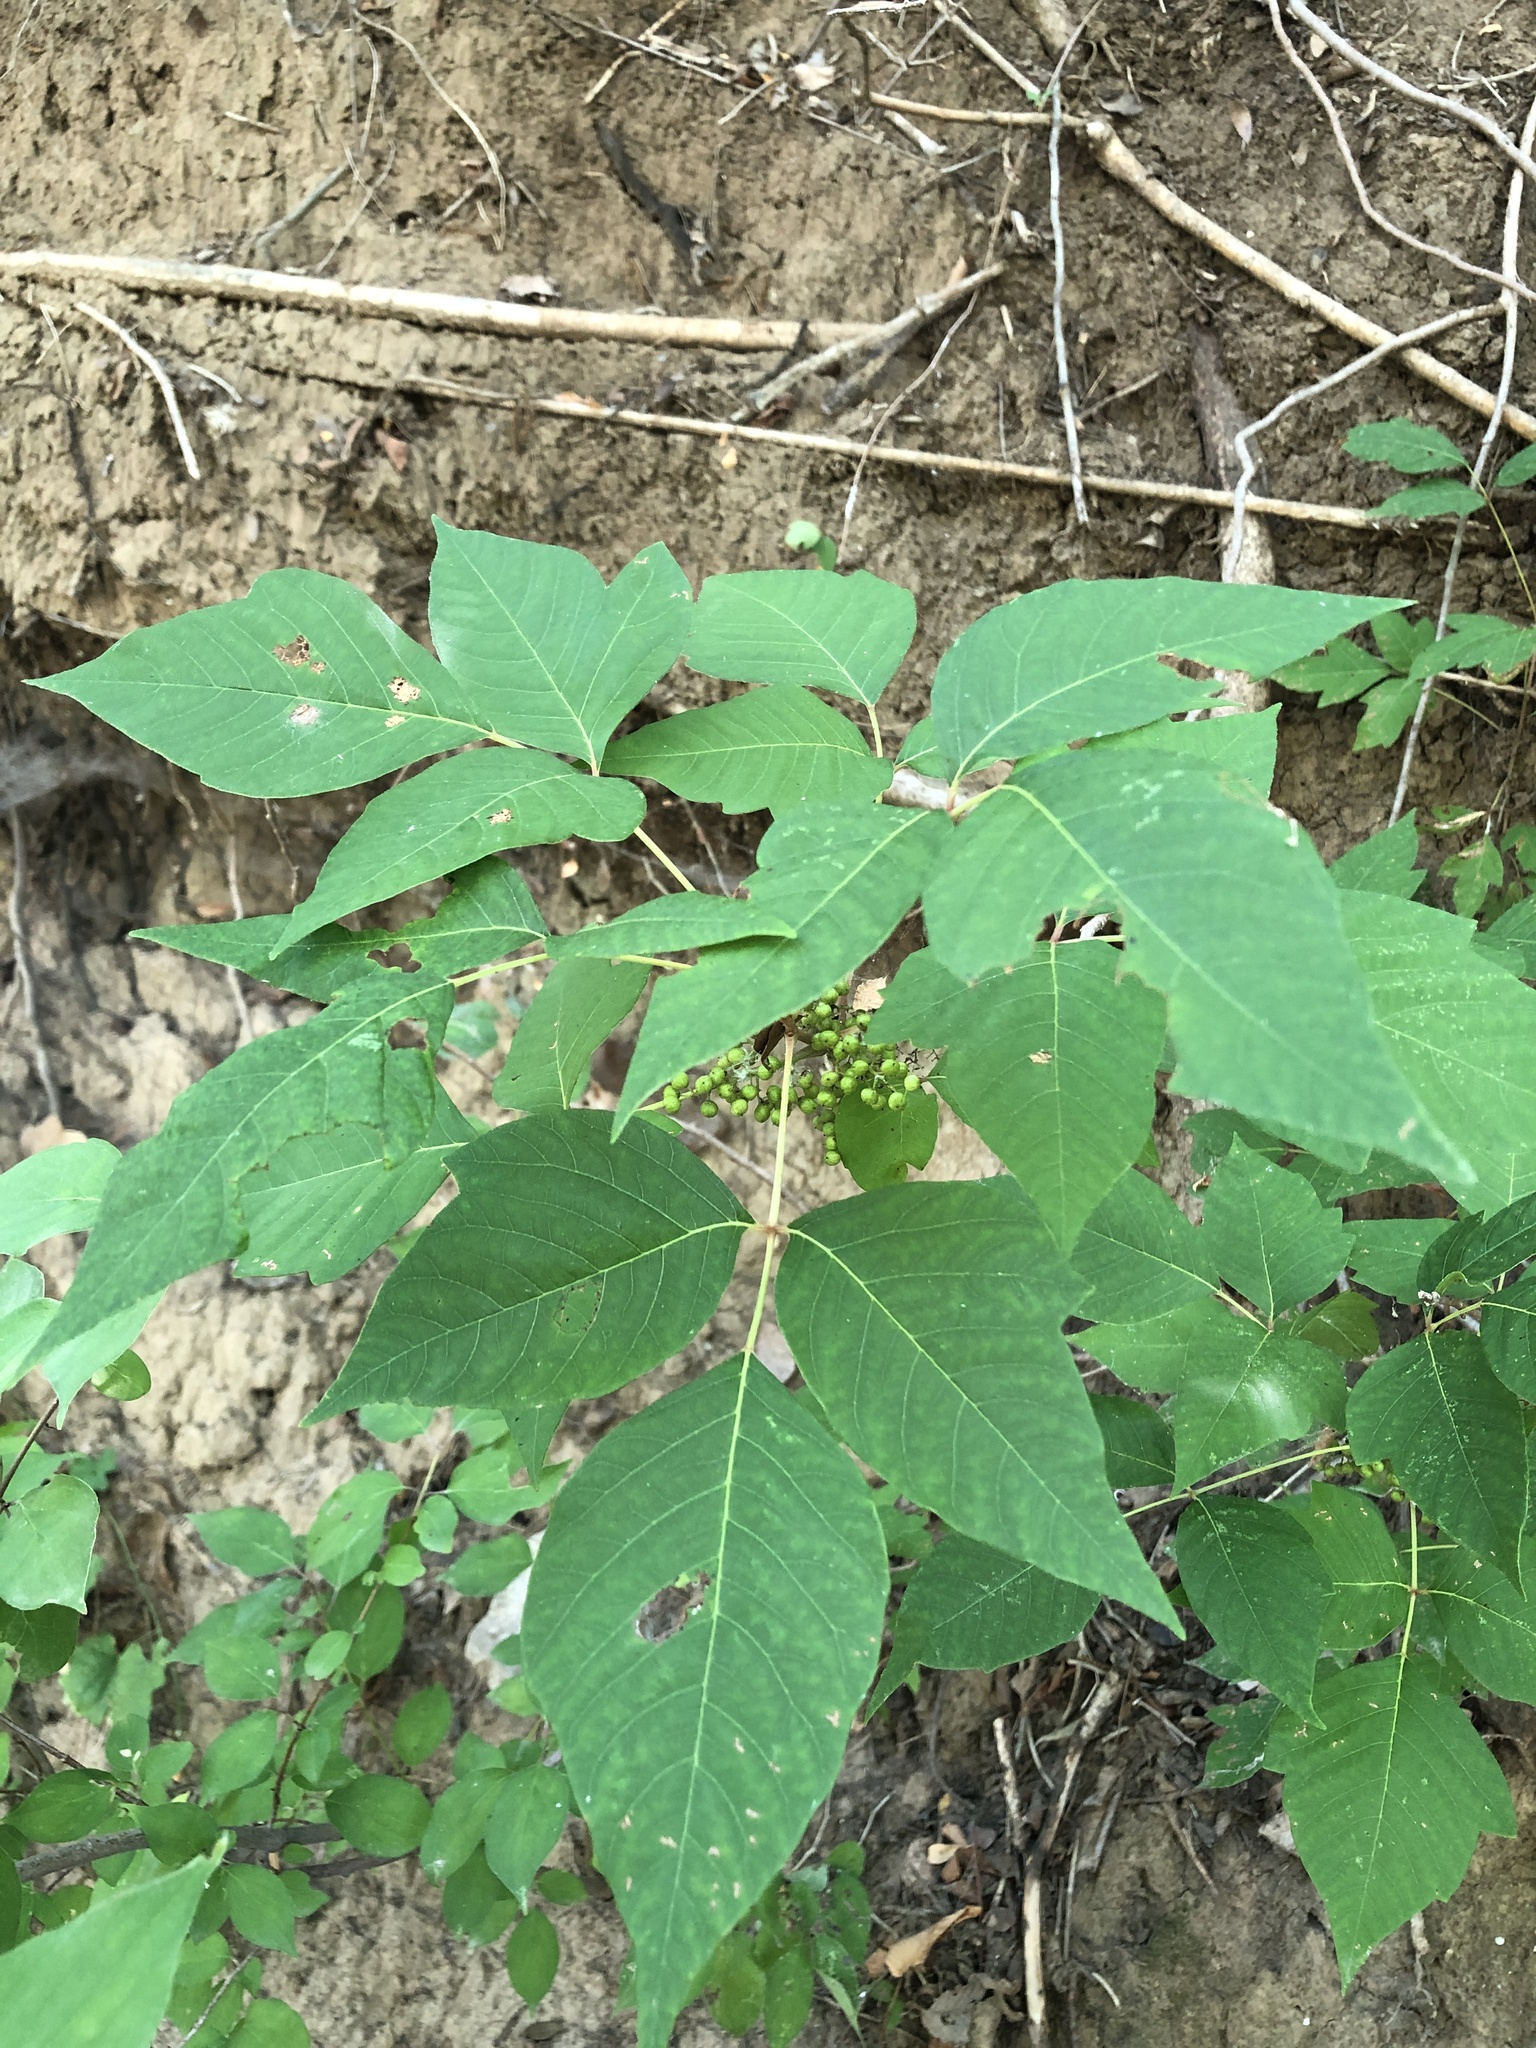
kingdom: Plantae
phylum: Tracheophyta
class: Magnoliopsida
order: Sapindales
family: Anacardiaceae
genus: Toxicodendron
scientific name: Toxicodendron radicans
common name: Poison ivy
